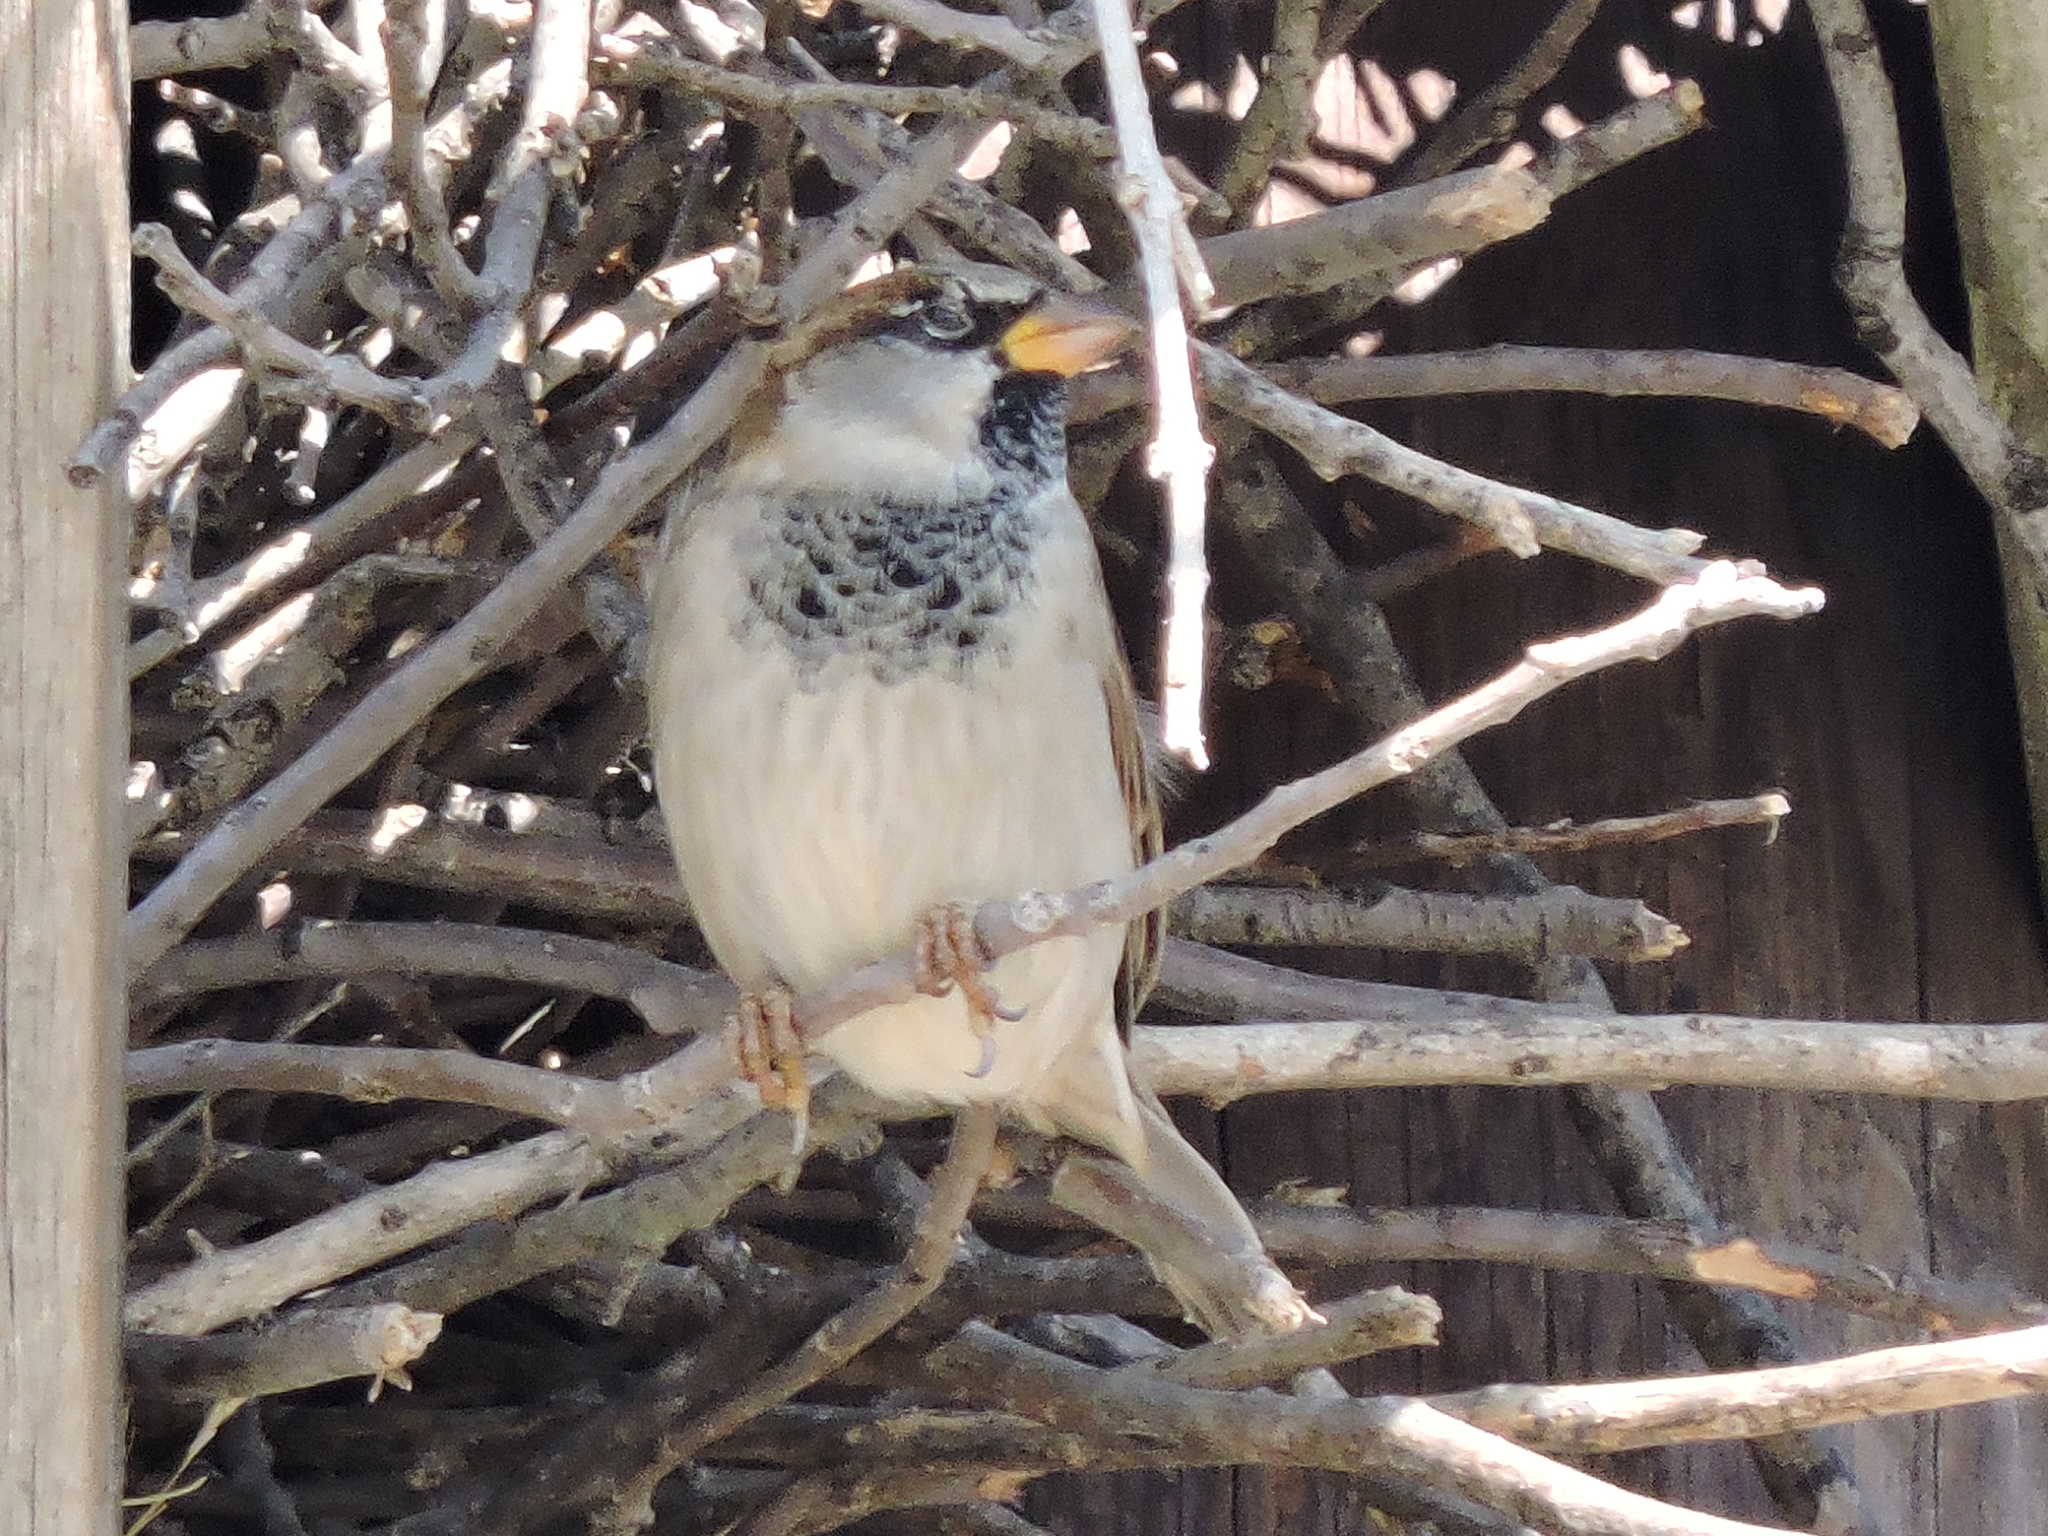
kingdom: Animalia
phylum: Chordata
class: Aves
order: Passeriformes
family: Passeridae
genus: Passer
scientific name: Passer domesticus
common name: House sparrow
